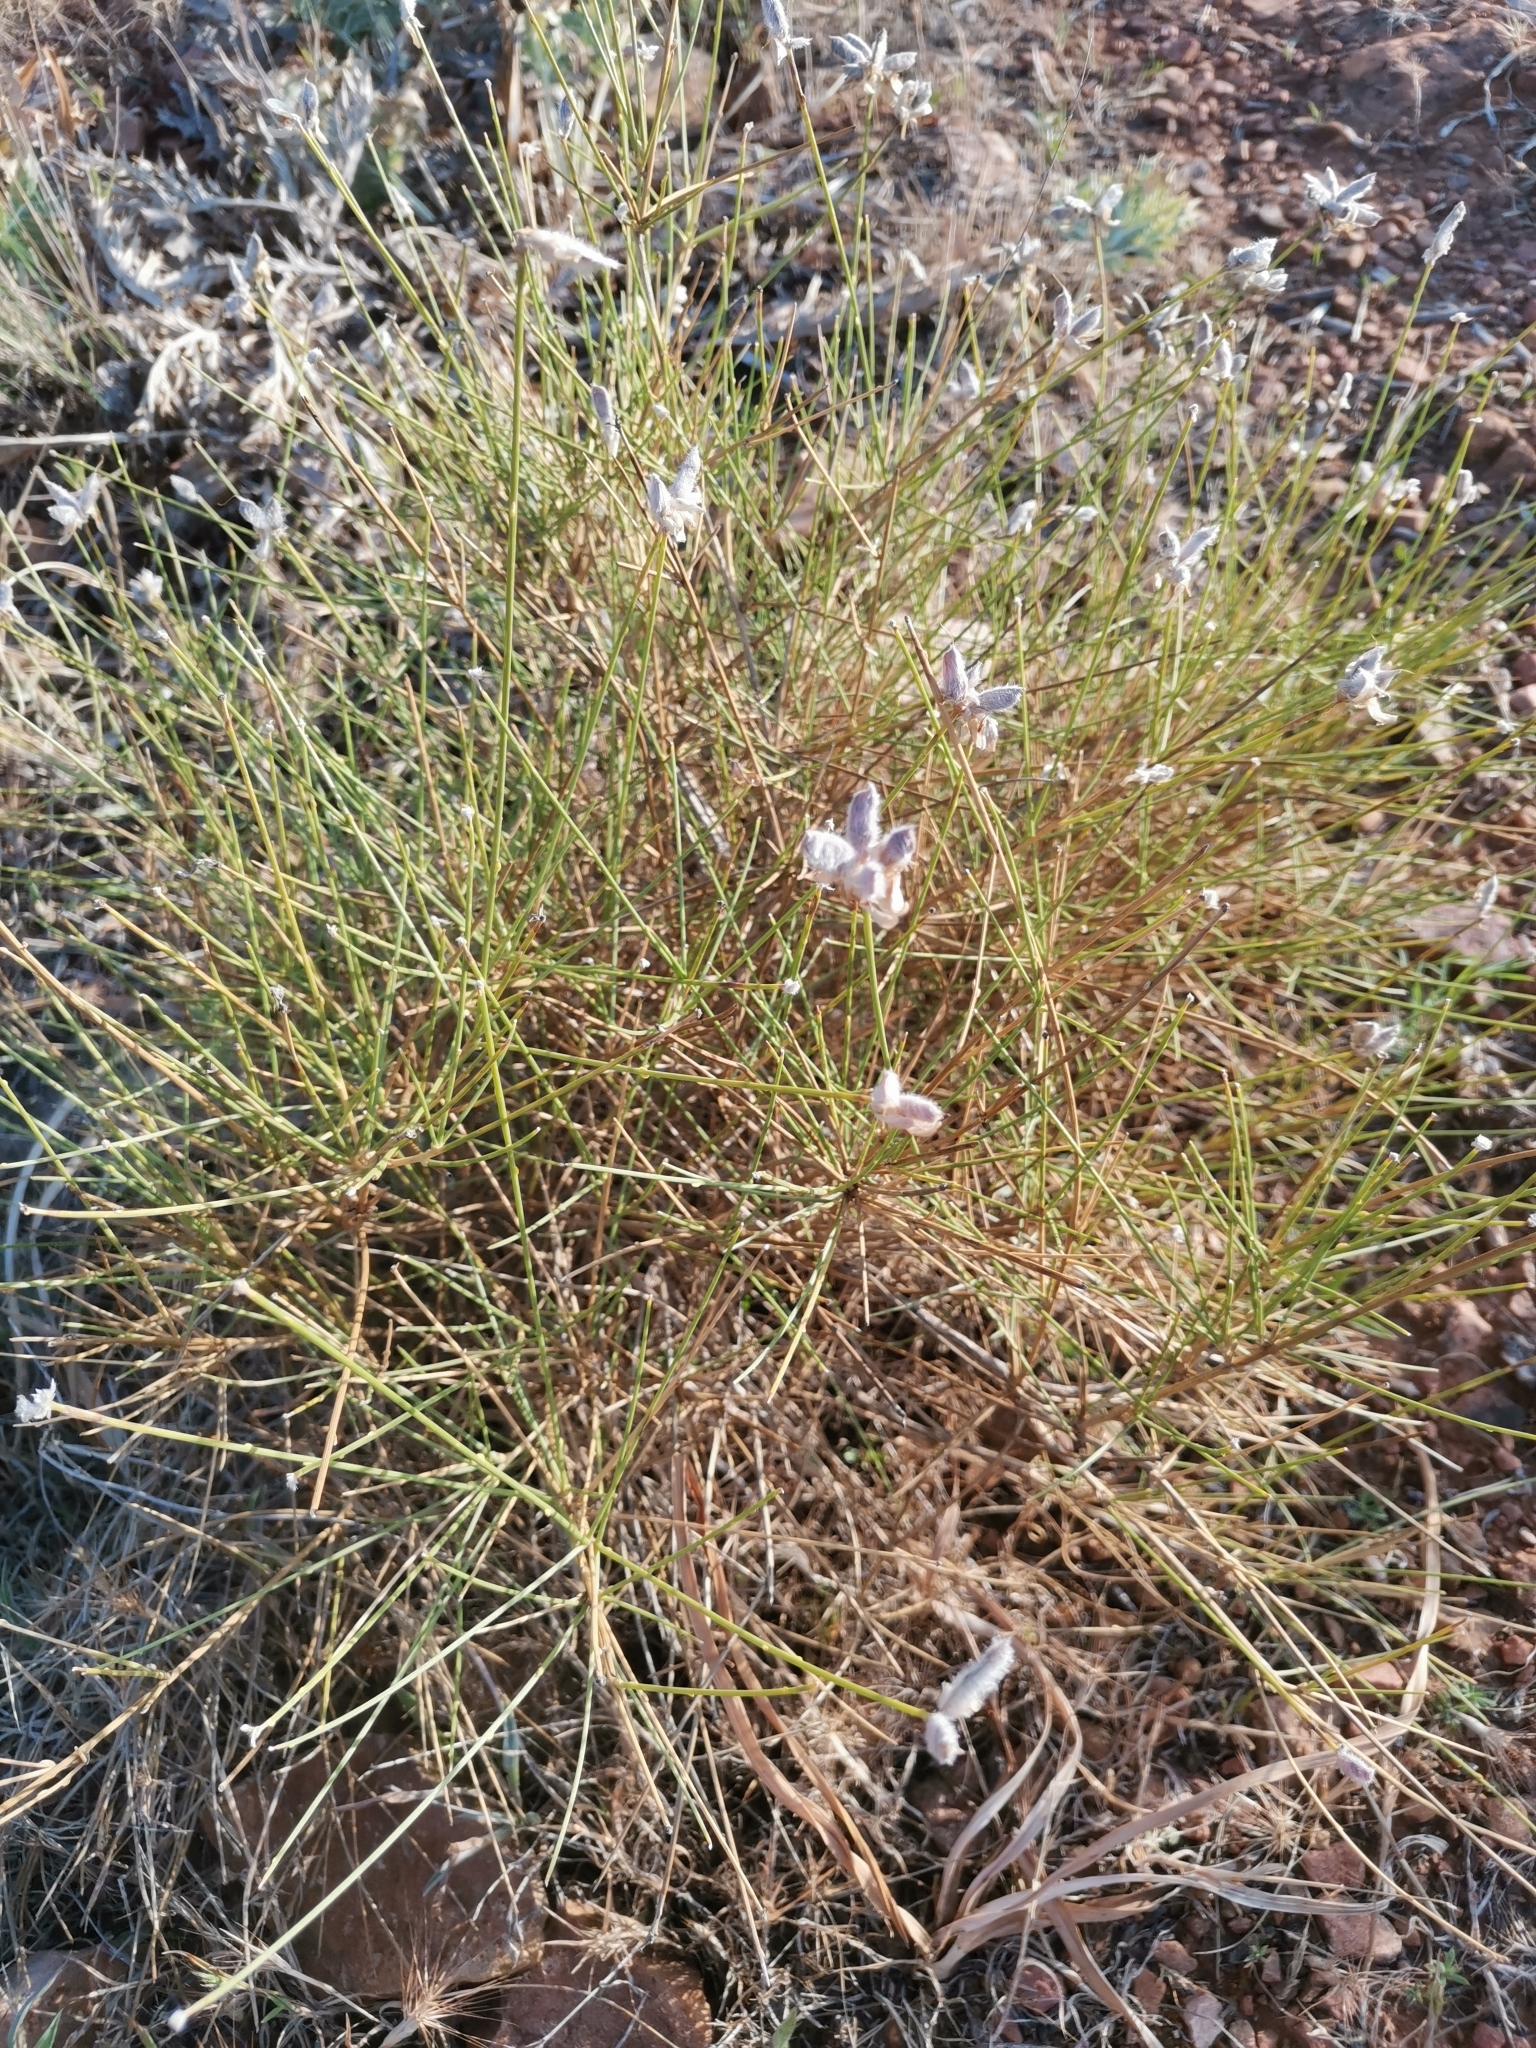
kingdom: Plantae
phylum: Tracheophyta
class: Magnoliopsida
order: Fabales
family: Fabaceae
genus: Genista
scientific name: Genista umbellata
